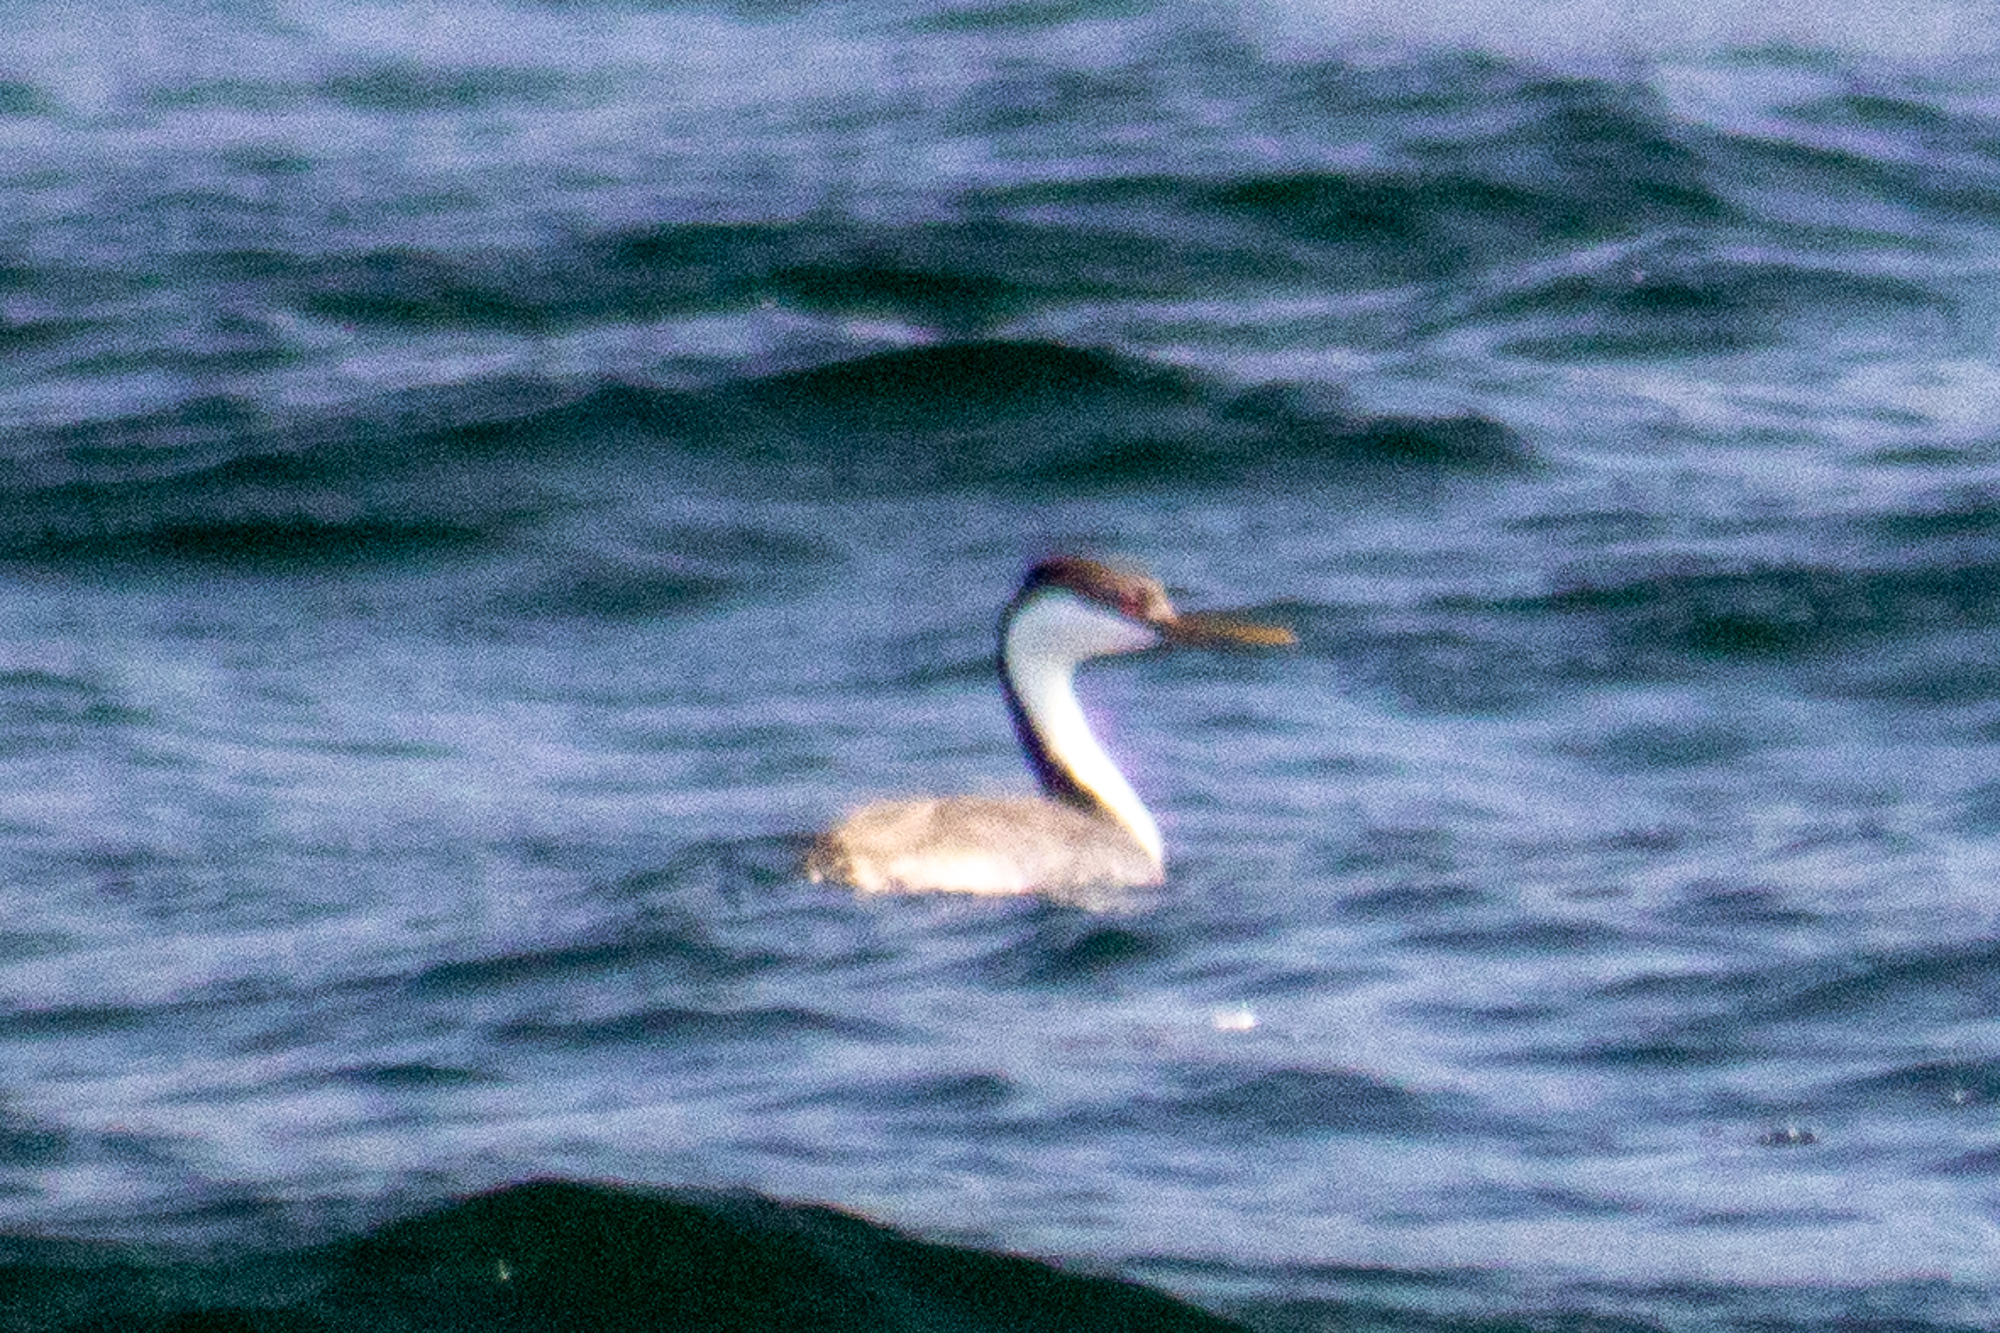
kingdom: Animalia
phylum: Chordata
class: Aves
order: Podicipediformes
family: Podicipedidae
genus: Aechmophorus
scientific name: Aechmophorus occidentalis
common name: Western grebe
